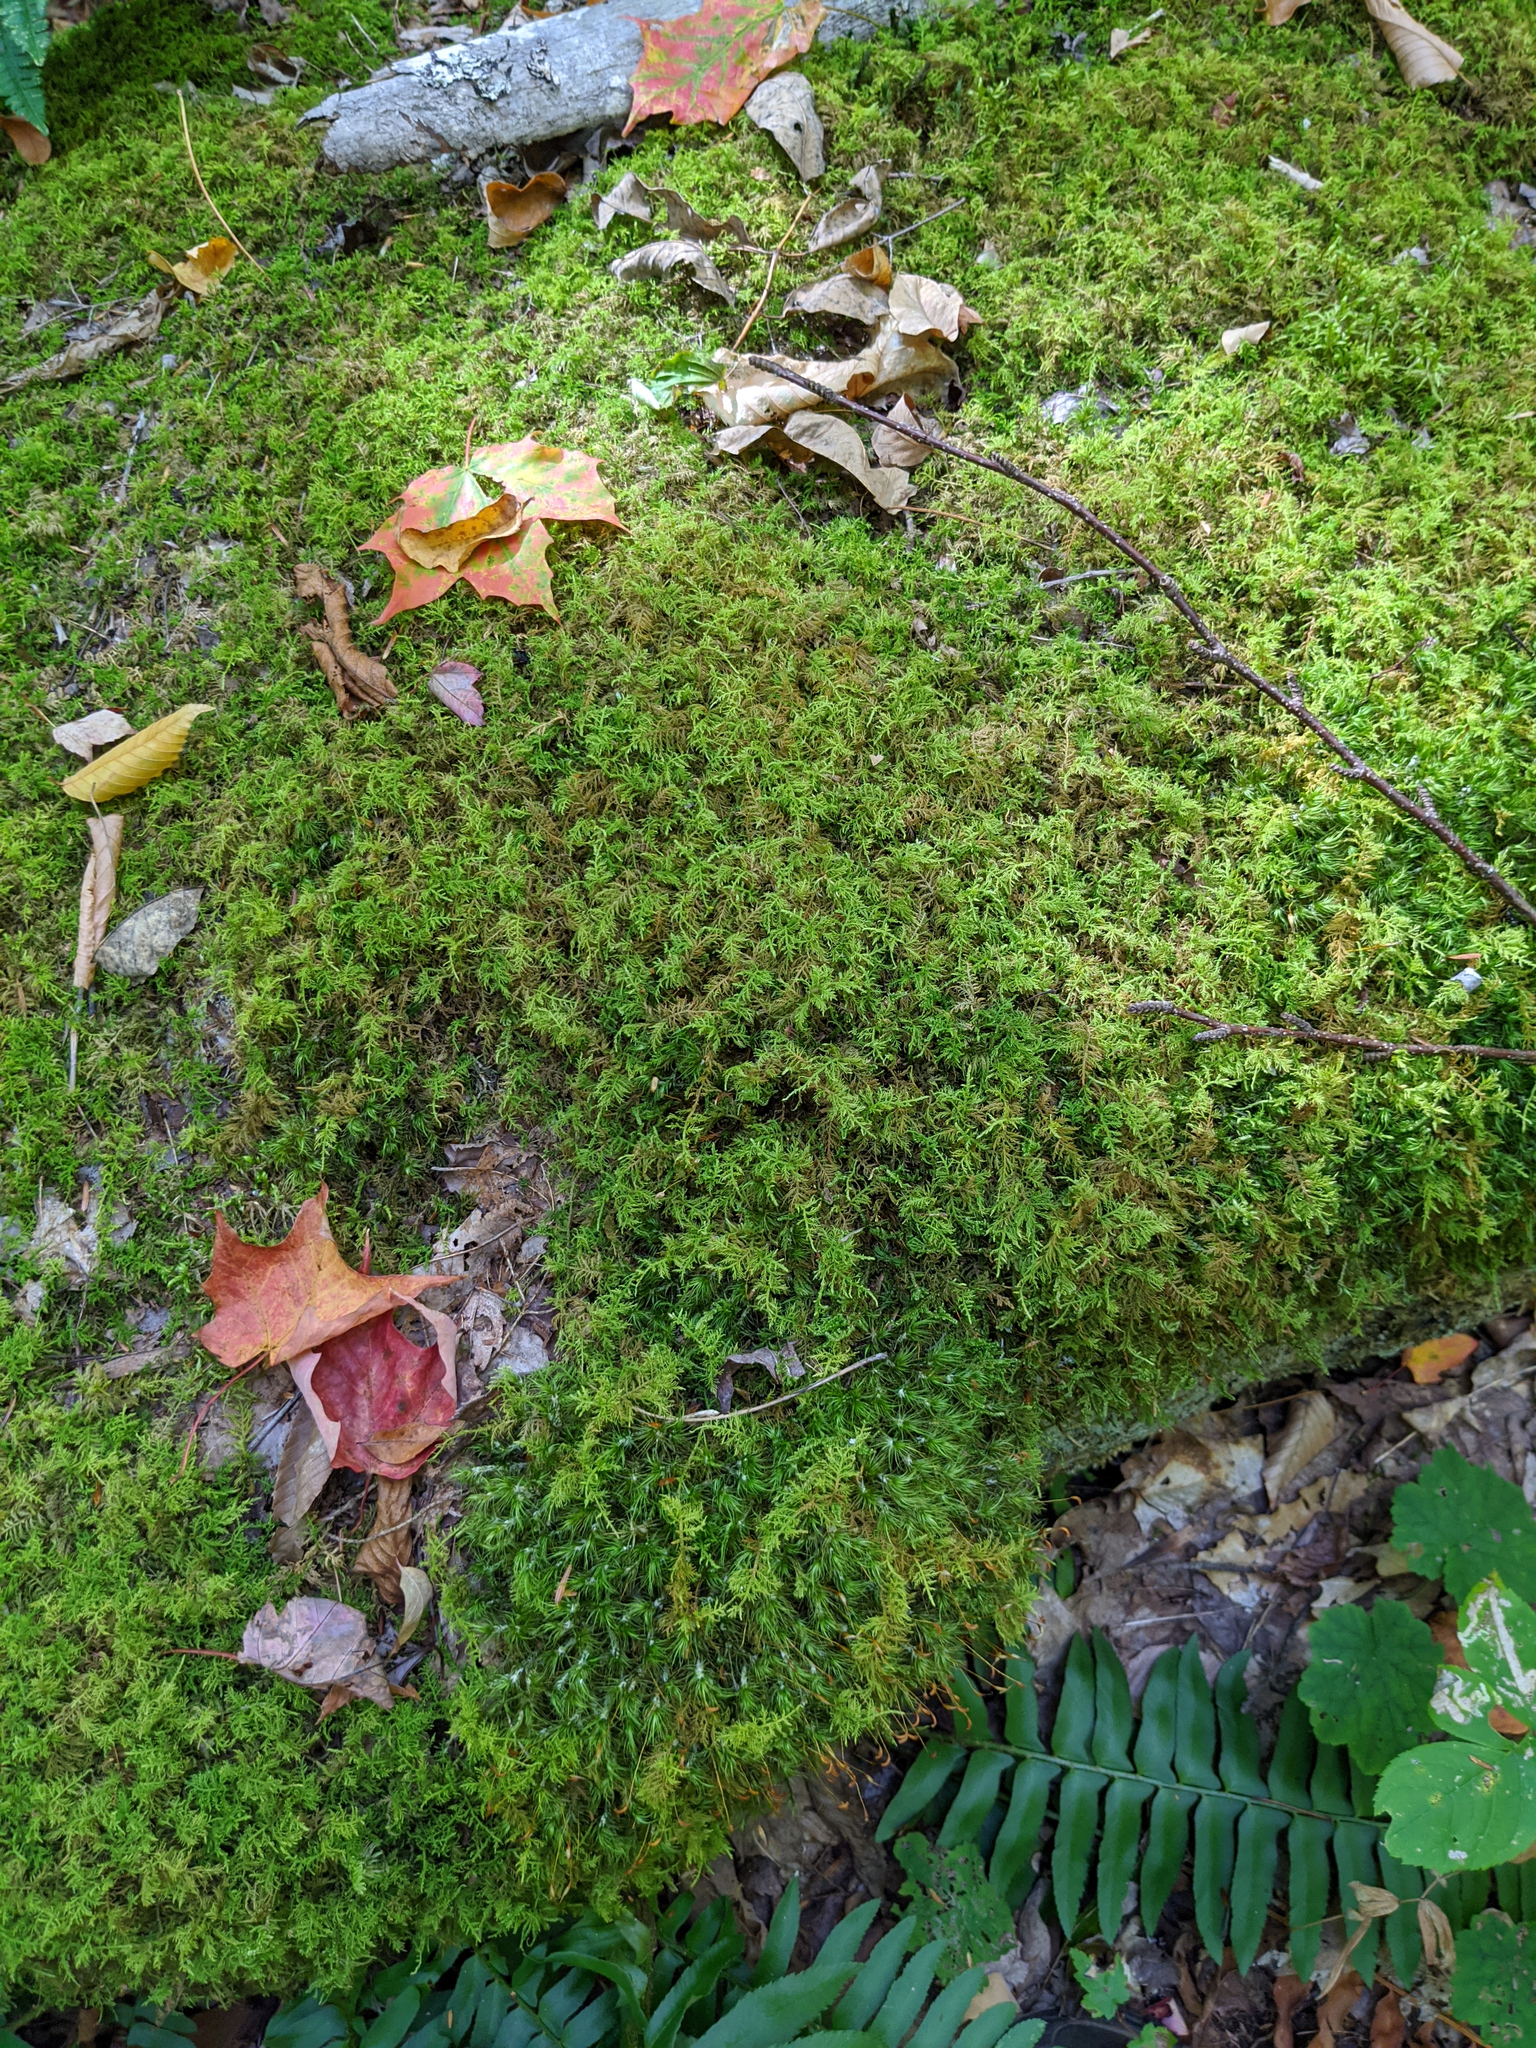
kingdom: Plantae
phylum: Bryophyta
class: Bryopsida
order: Hypnales
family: Thuidiaceae
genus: Thuidium
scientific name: Thuidium delicatulum
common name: Delicate fern moss
